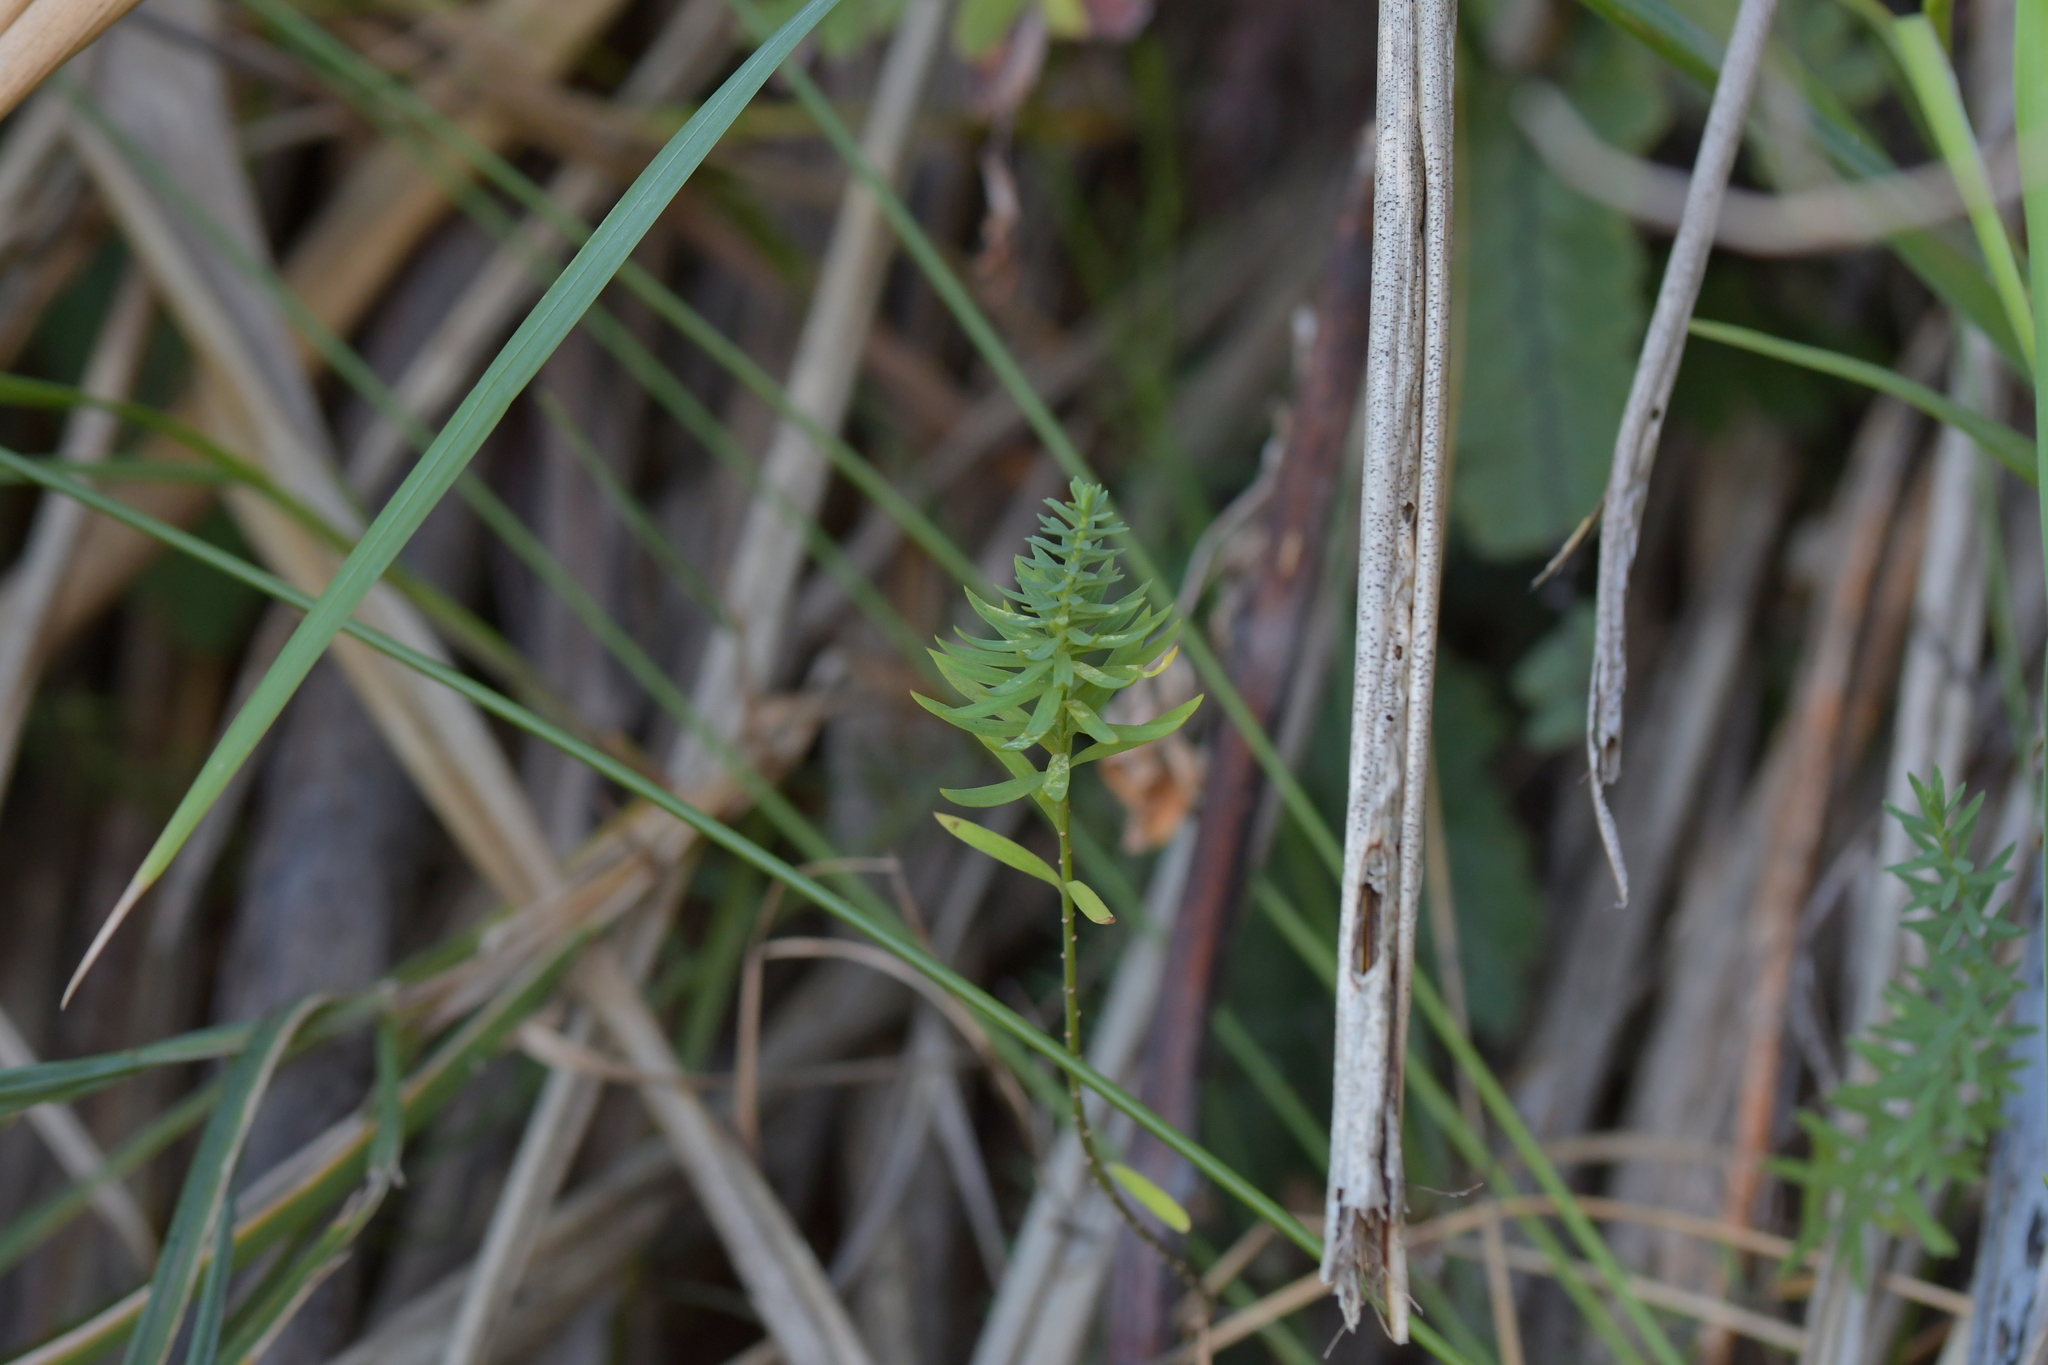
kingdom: Plantae
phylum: Tracheophyta
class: Magnoliopsida
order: Malpighiales
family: Linaceae
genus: Linum
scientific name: Linum monogynum
